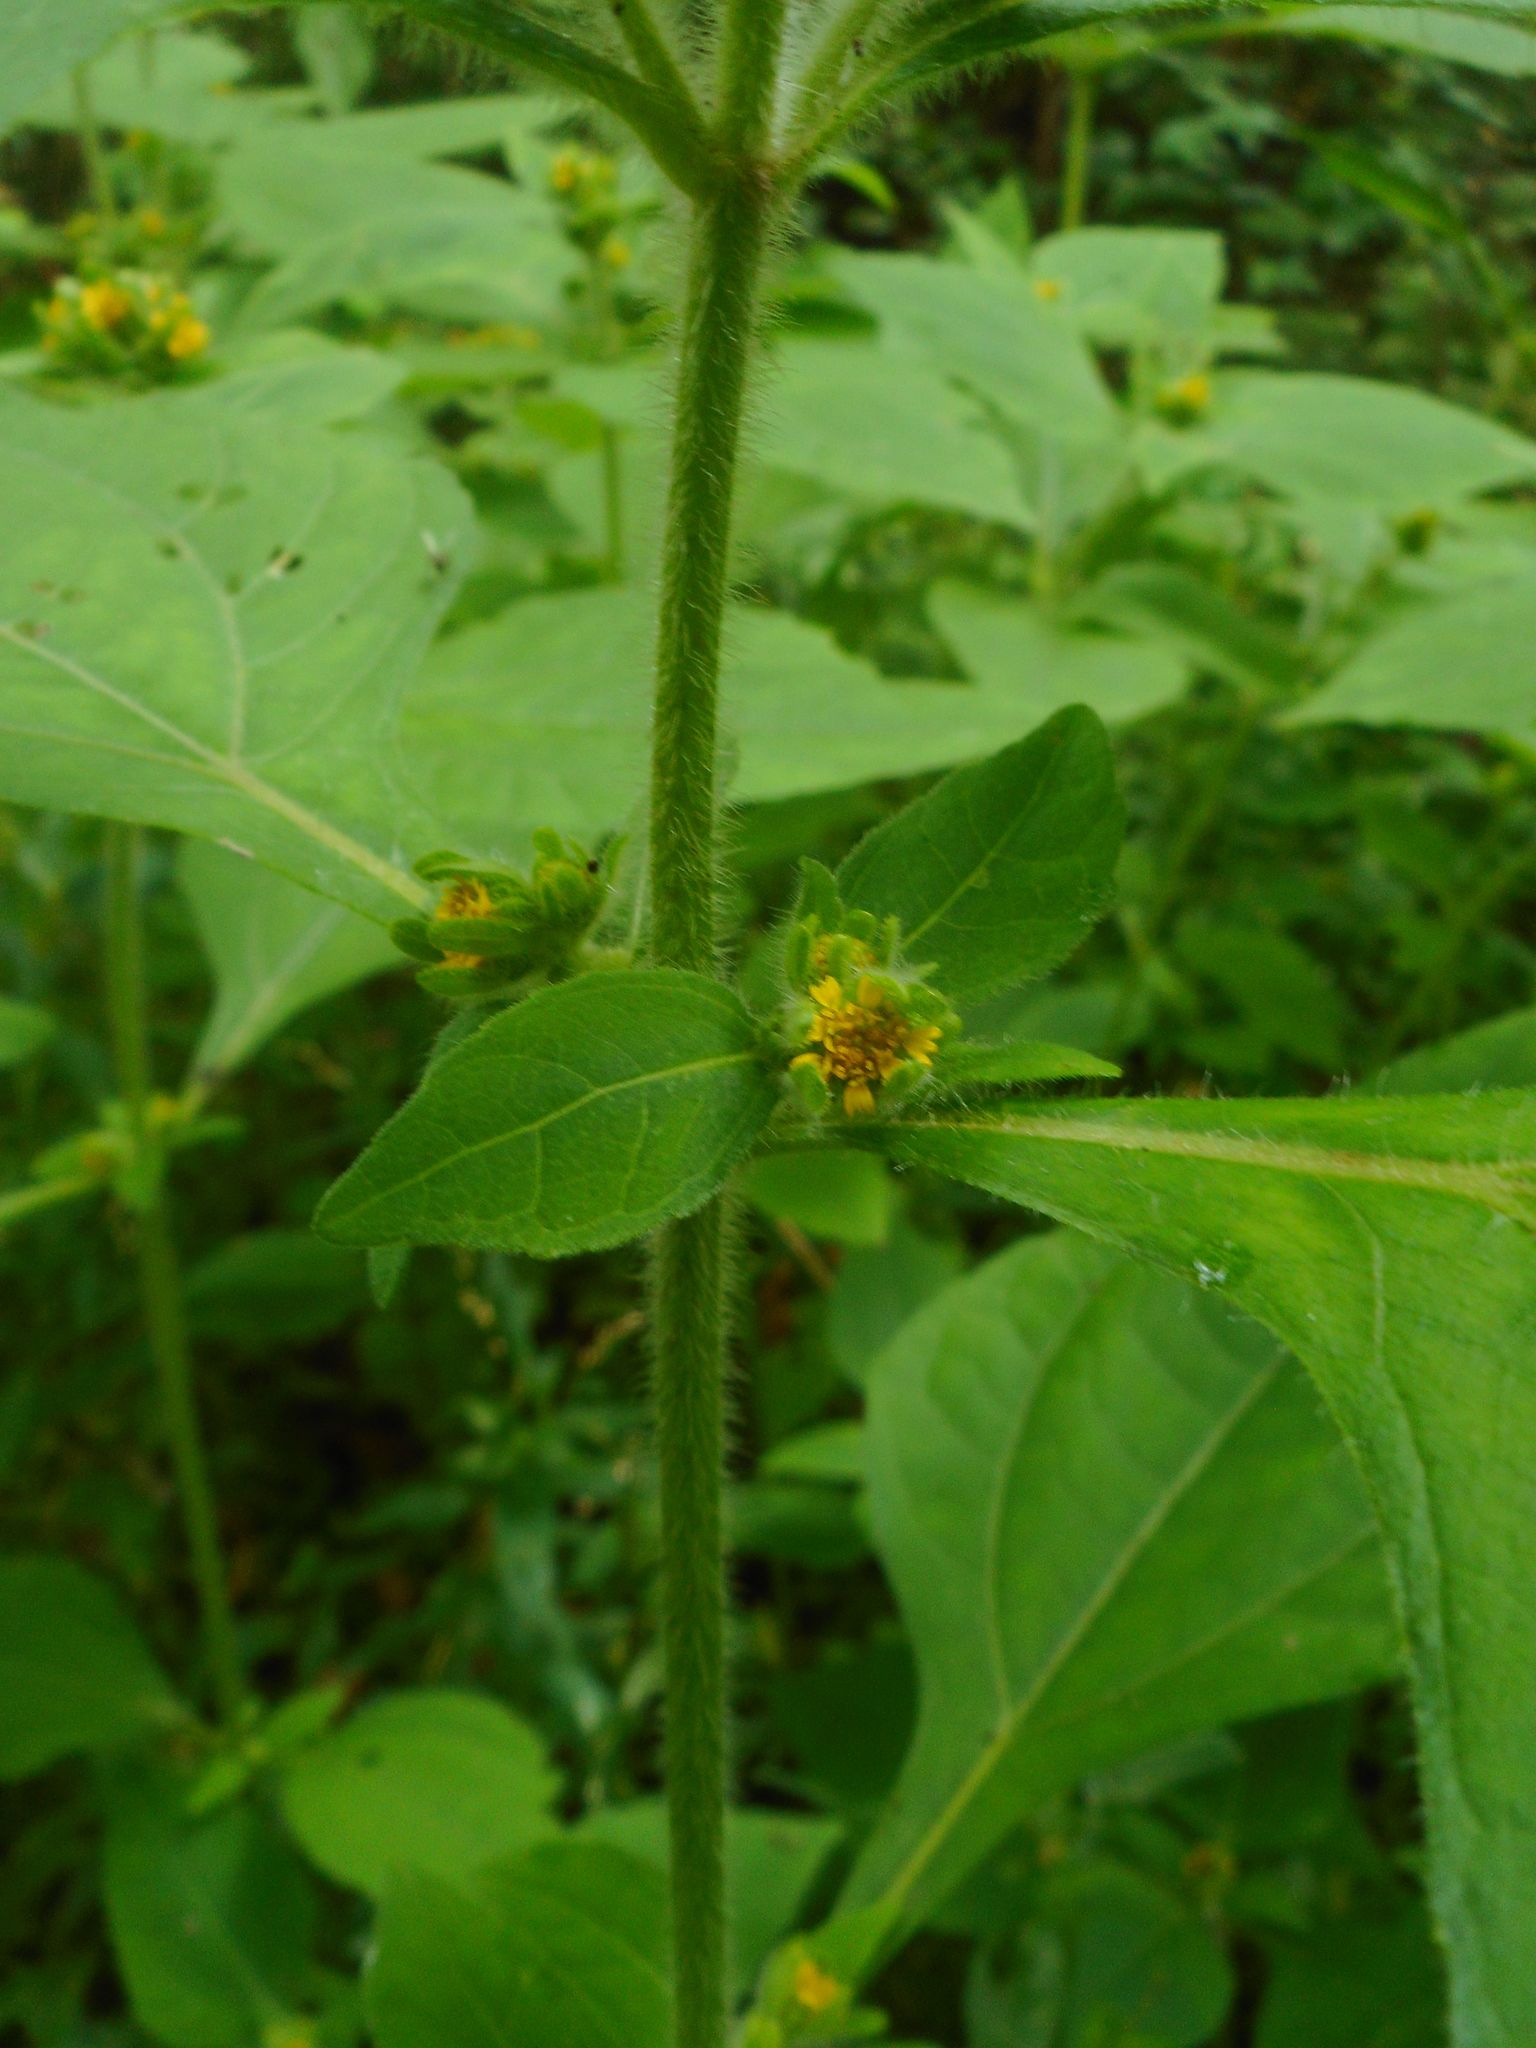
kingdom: Plantae
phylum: Tracheophyta
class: Magnoliopsida
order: Asterales
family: Asteraceae
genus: Sigesbeckia
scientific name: Sigesbeckia pubescens
